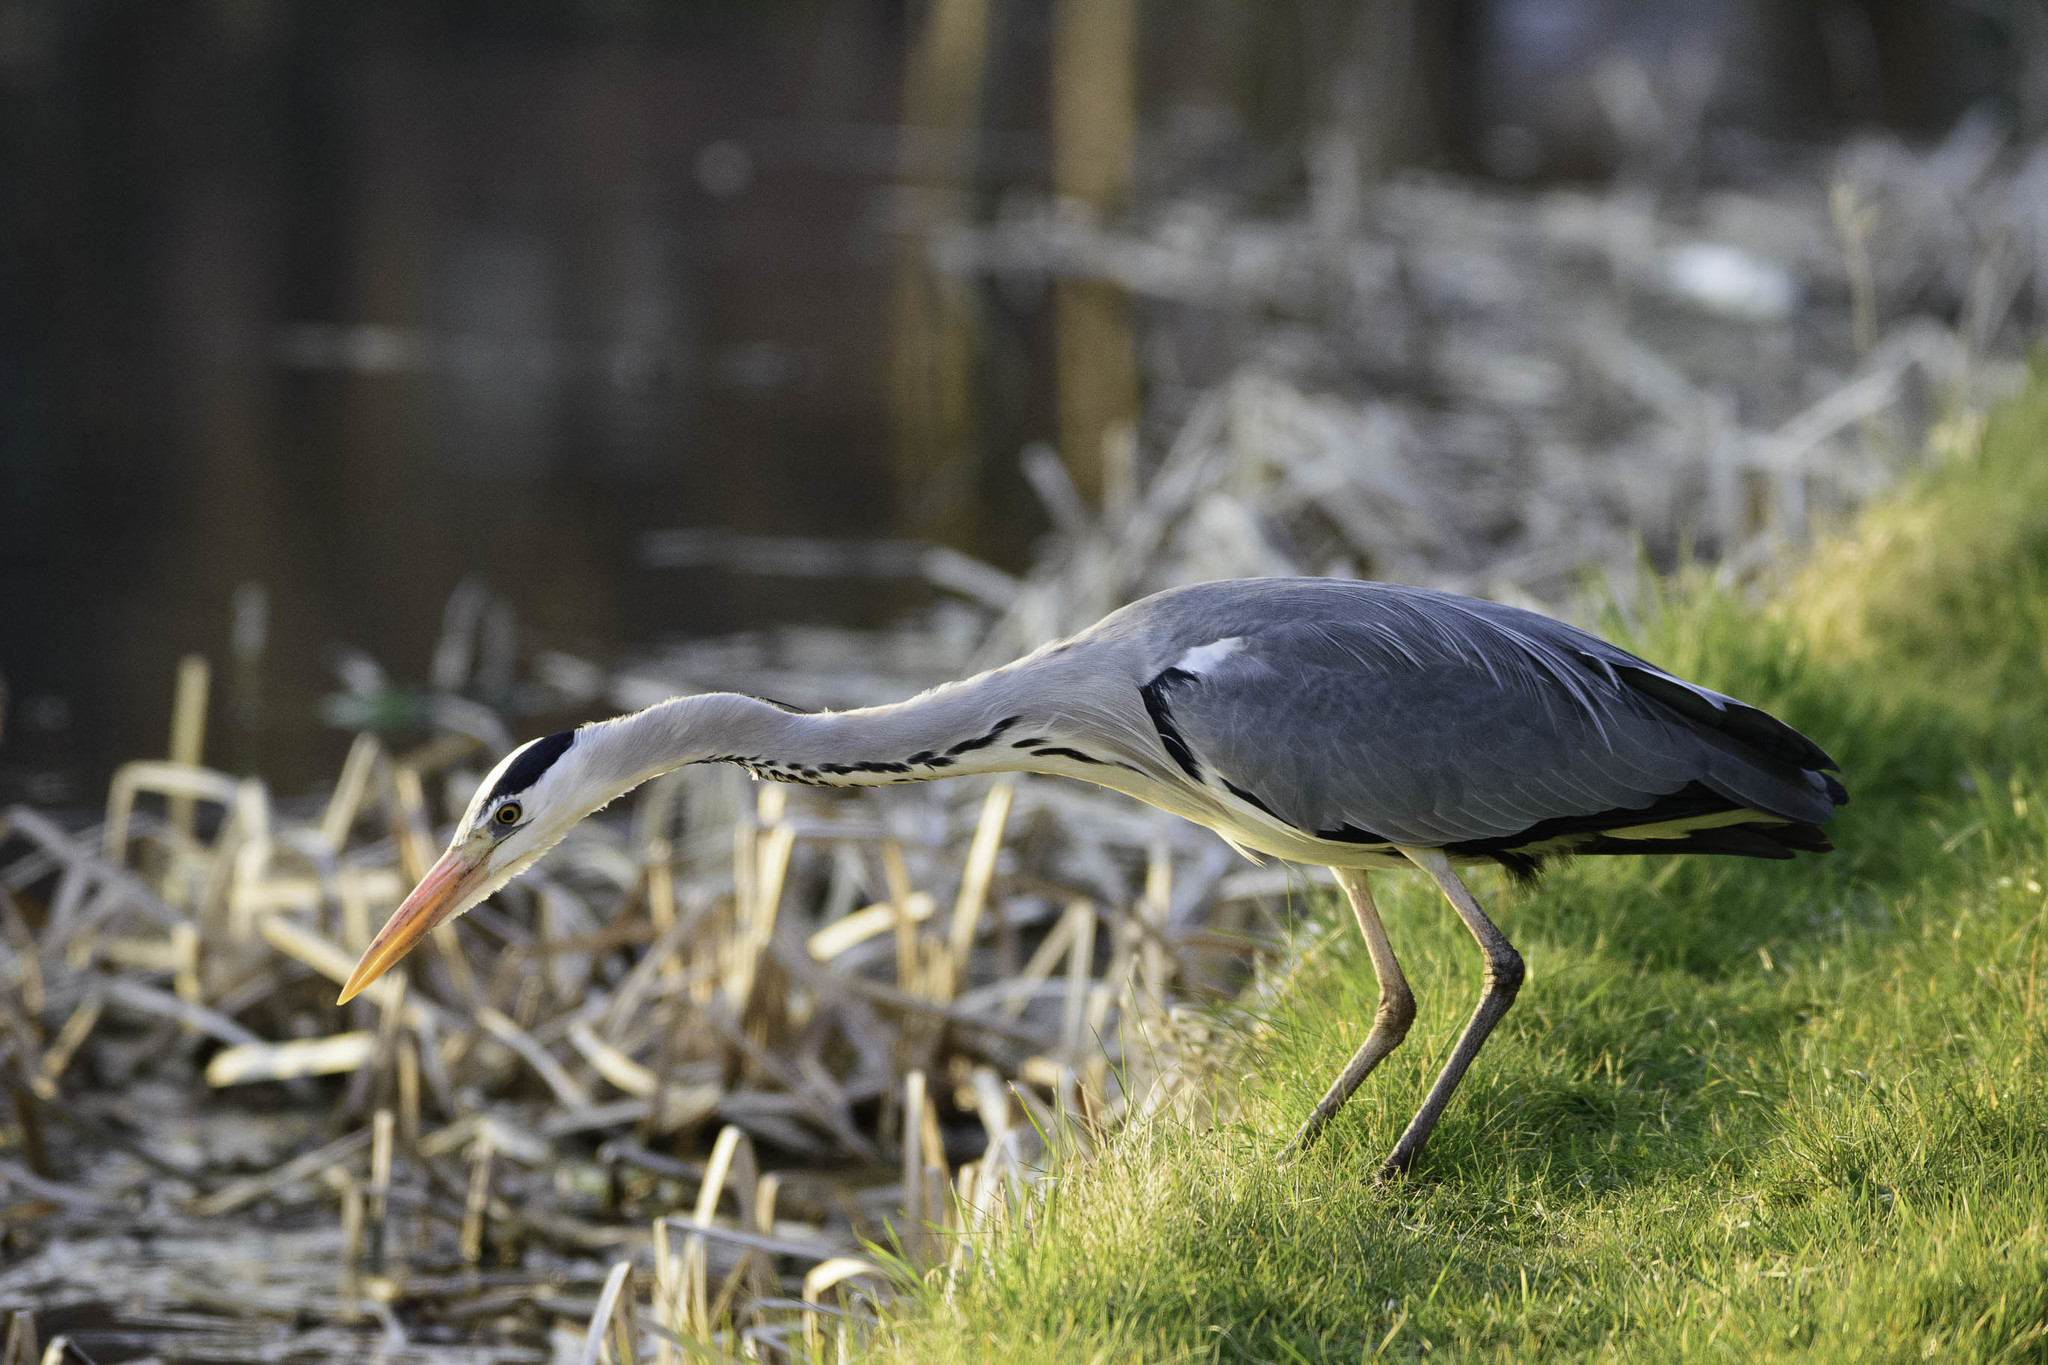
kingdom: Animalia
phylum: Chordata
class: Aves
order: Pelecaniformes
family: Ardeidae
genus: Ardea
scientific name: Ardea cinerea
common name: Grey heron
